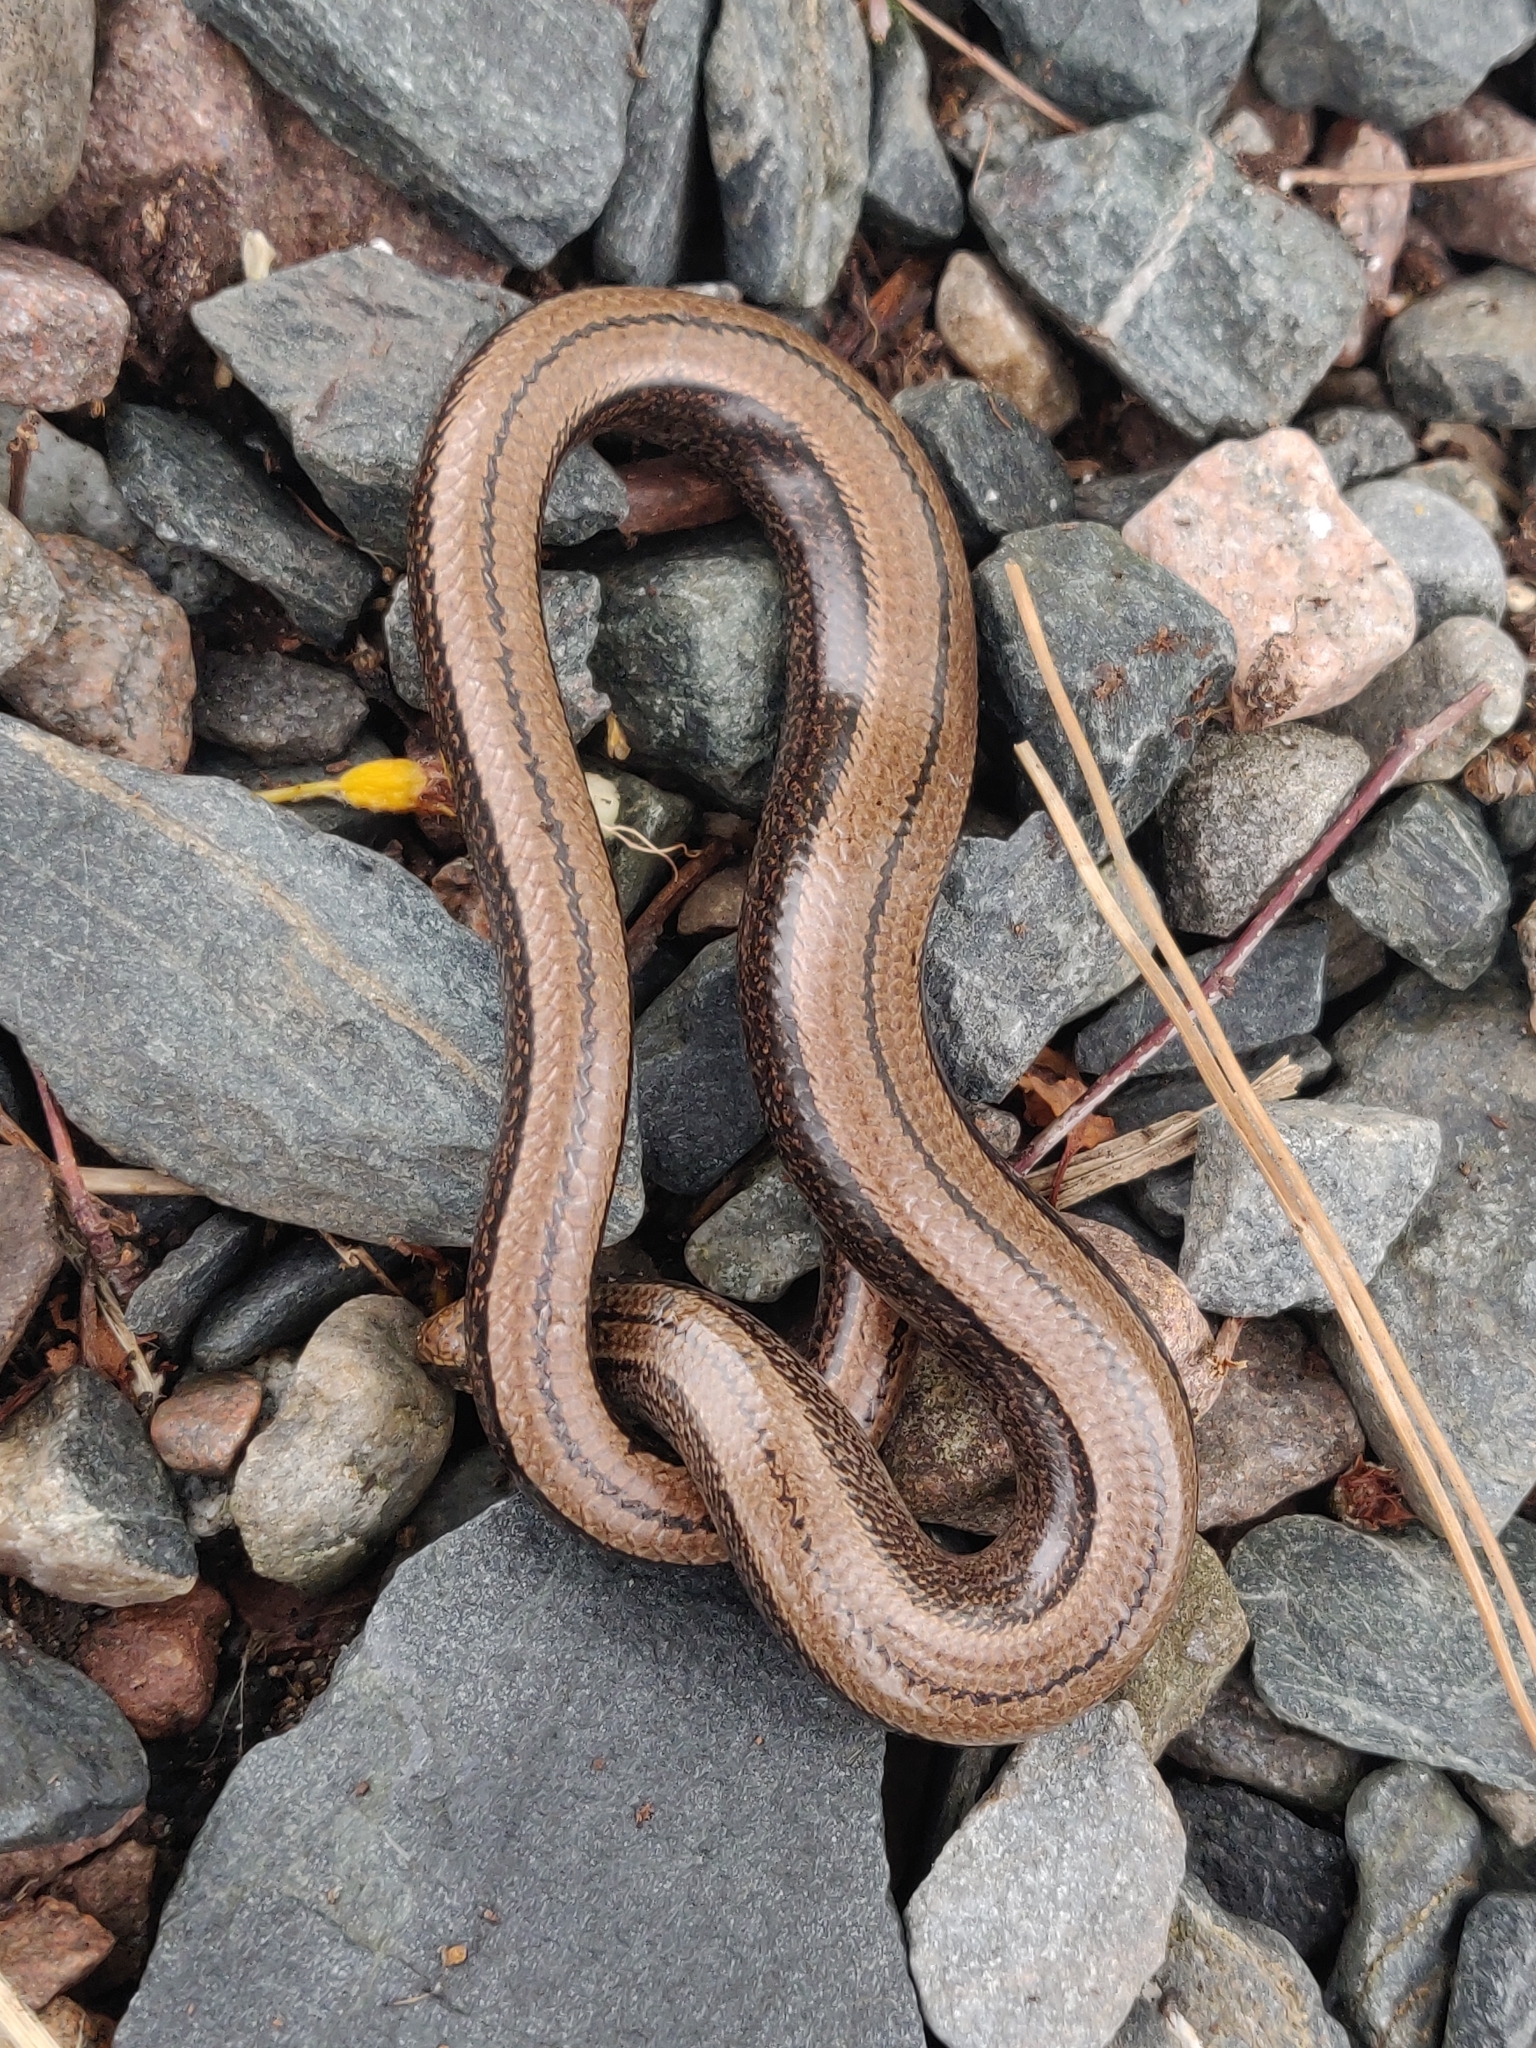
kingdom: Animalia
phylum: Chordata
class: Squamata
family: Anguidae
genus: Anguis
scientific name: Anguis fragilis
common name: Slow worm
